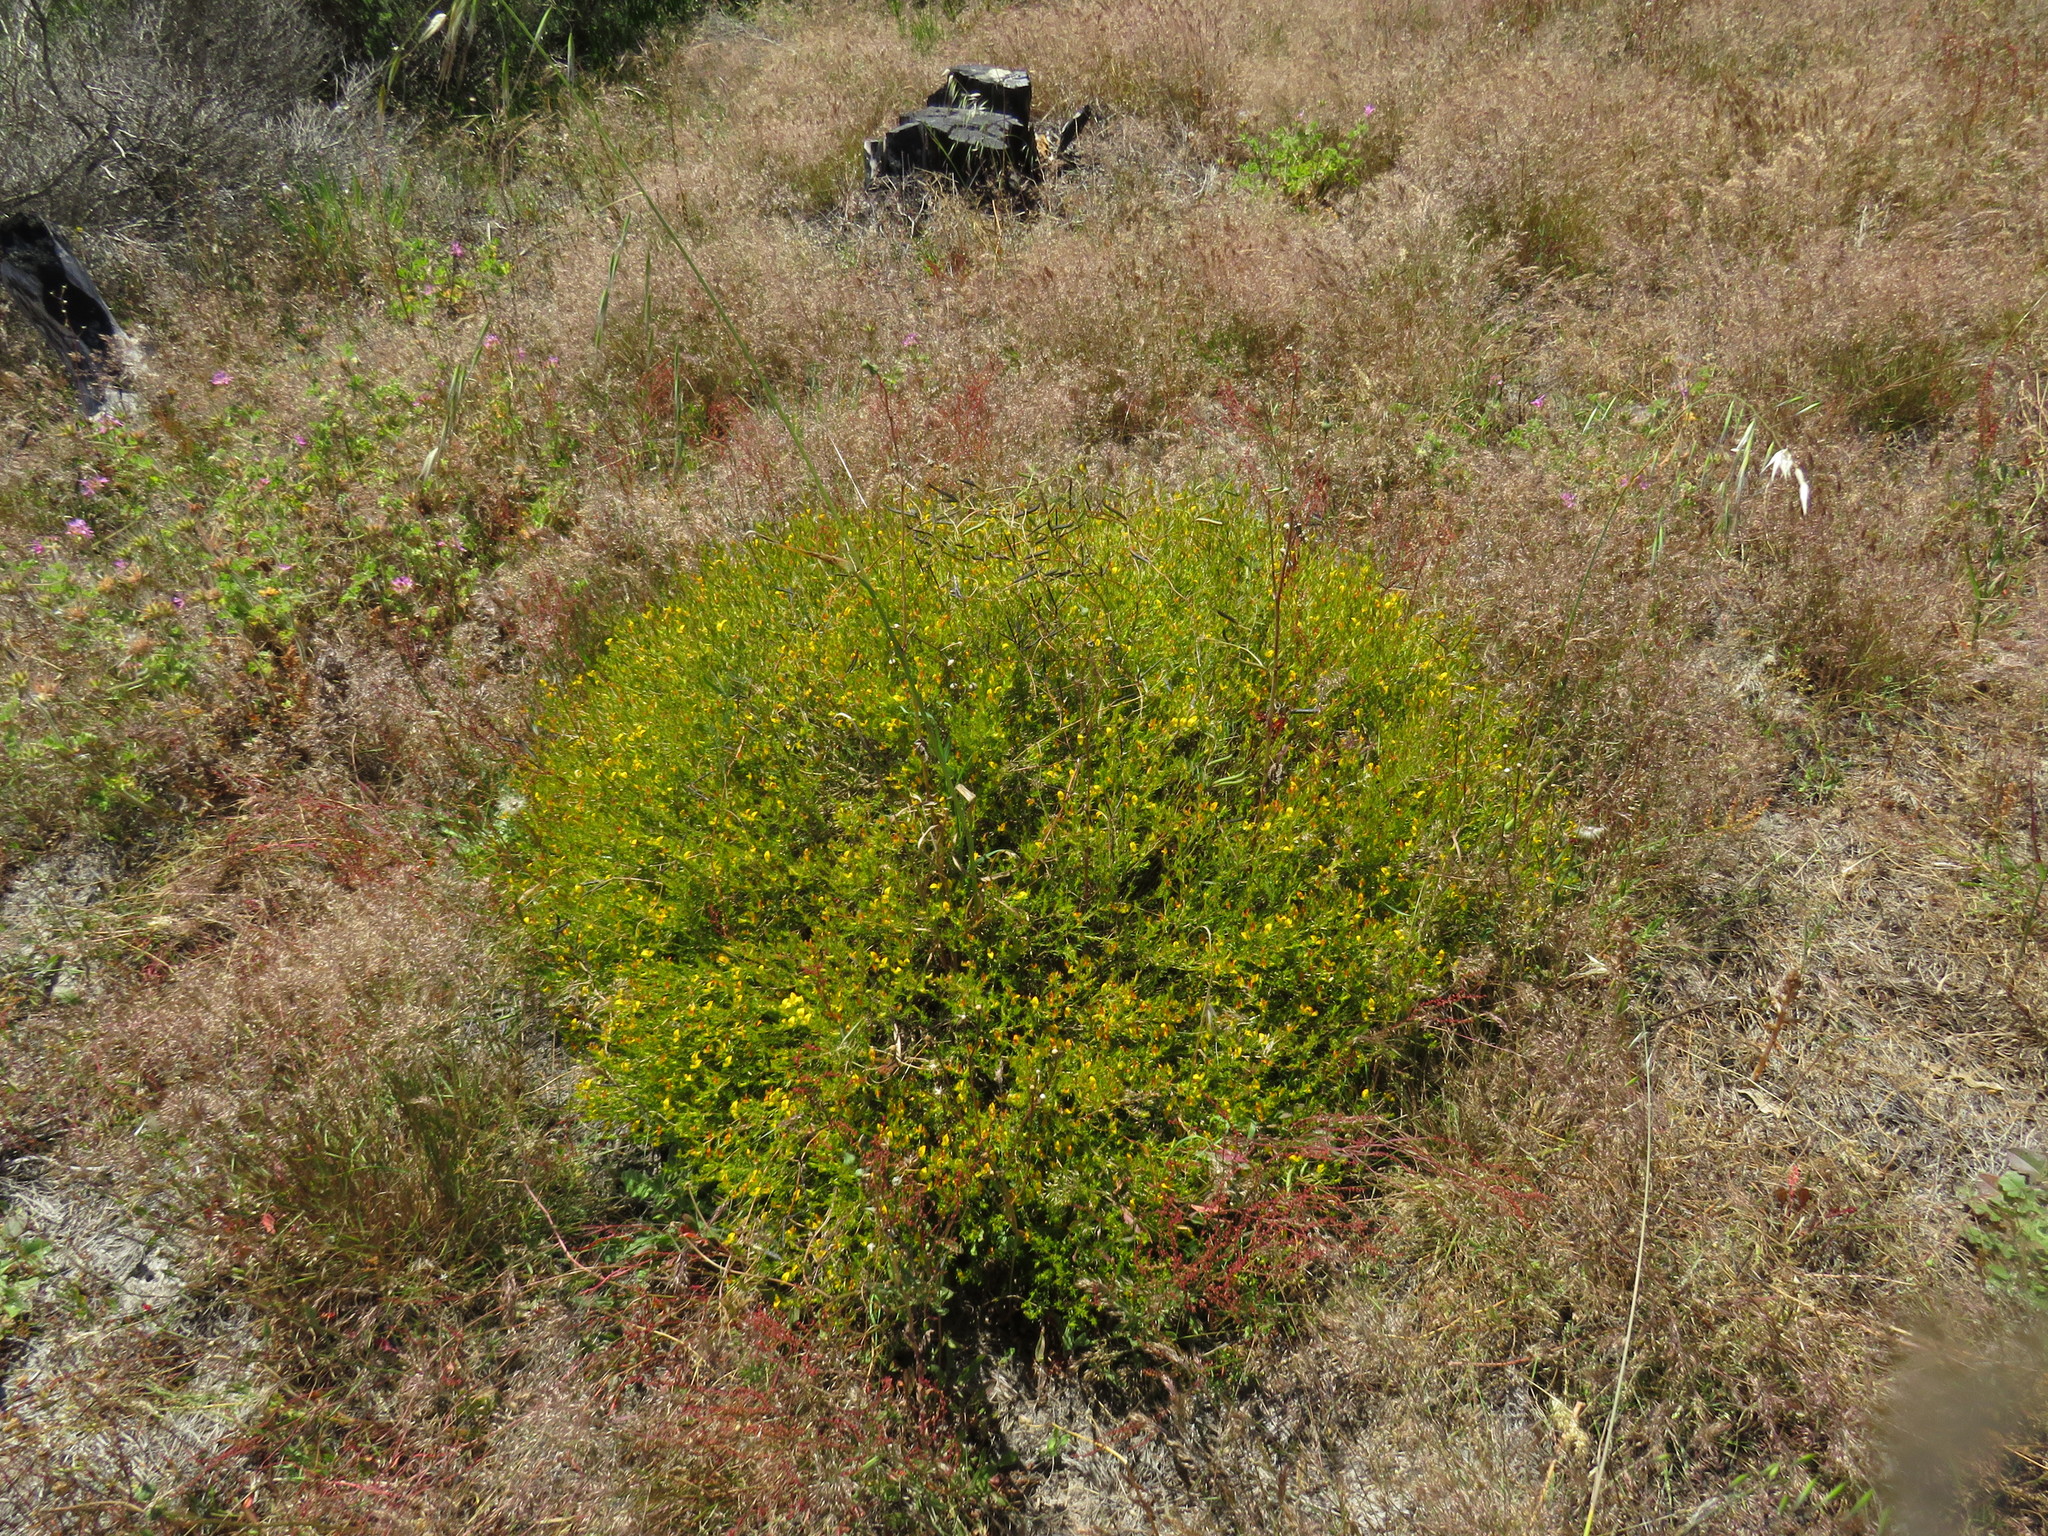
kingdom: Plantae
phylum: Tracheophyta
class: Magnoliopsida
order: Fabales
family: Fabaceae
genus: Aspalathus
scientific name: Aspalathus abietina
